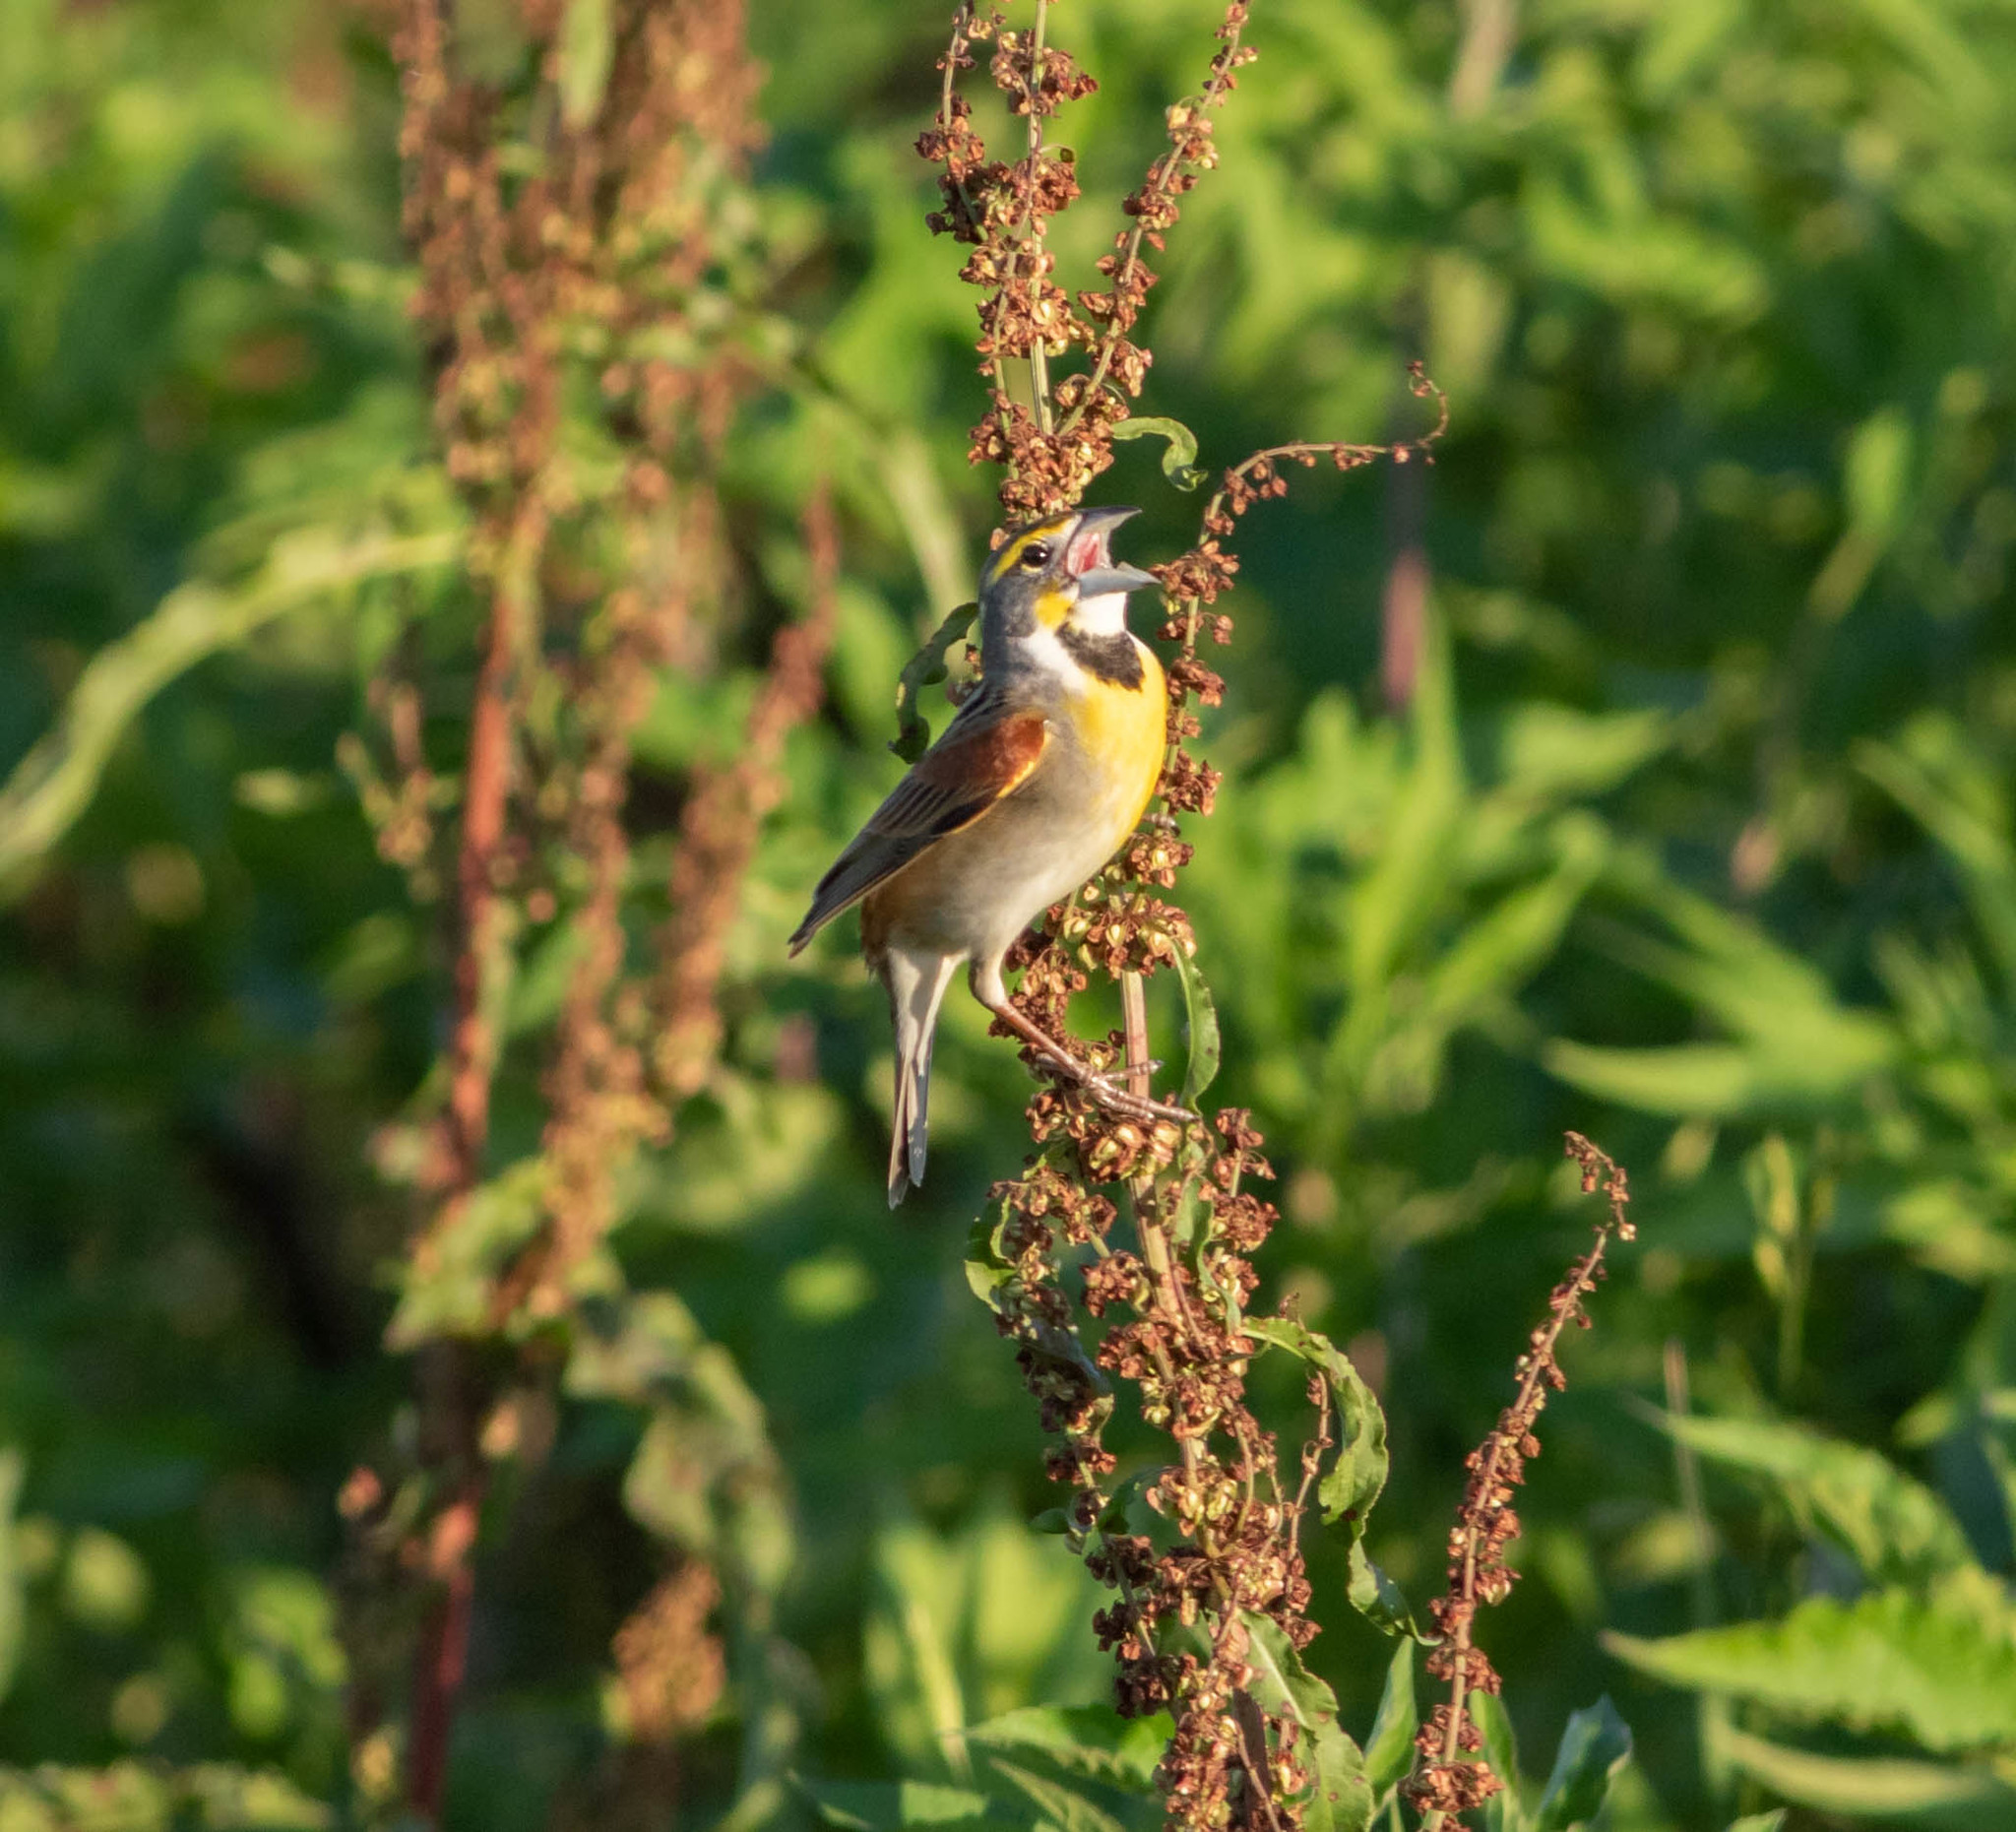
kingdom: Animalia
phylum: Chordata
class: Aves
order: Passeriformes
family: Cardinalidae
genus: Spiza
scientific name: Spiza americana
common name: Dickcissel
